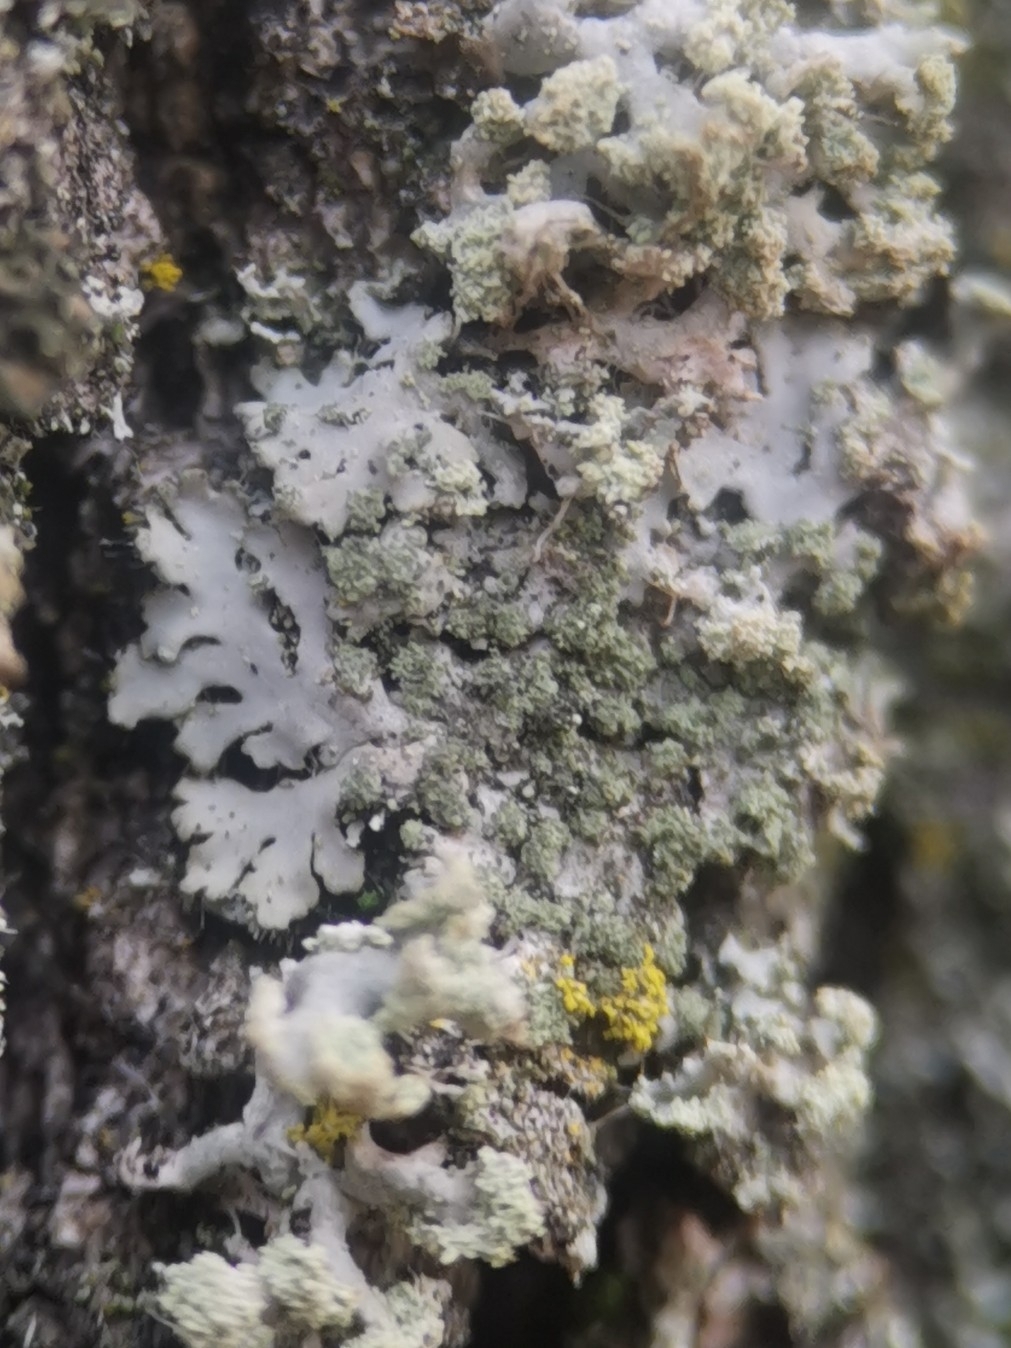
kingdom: Fungi
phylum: Ascomycota
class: Lecanoromycetes
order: Caliciales
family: Physciaceae
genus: Phaeophyscia
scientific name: Phaeophyscia orbicularis
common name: Mealy shadow lichen
